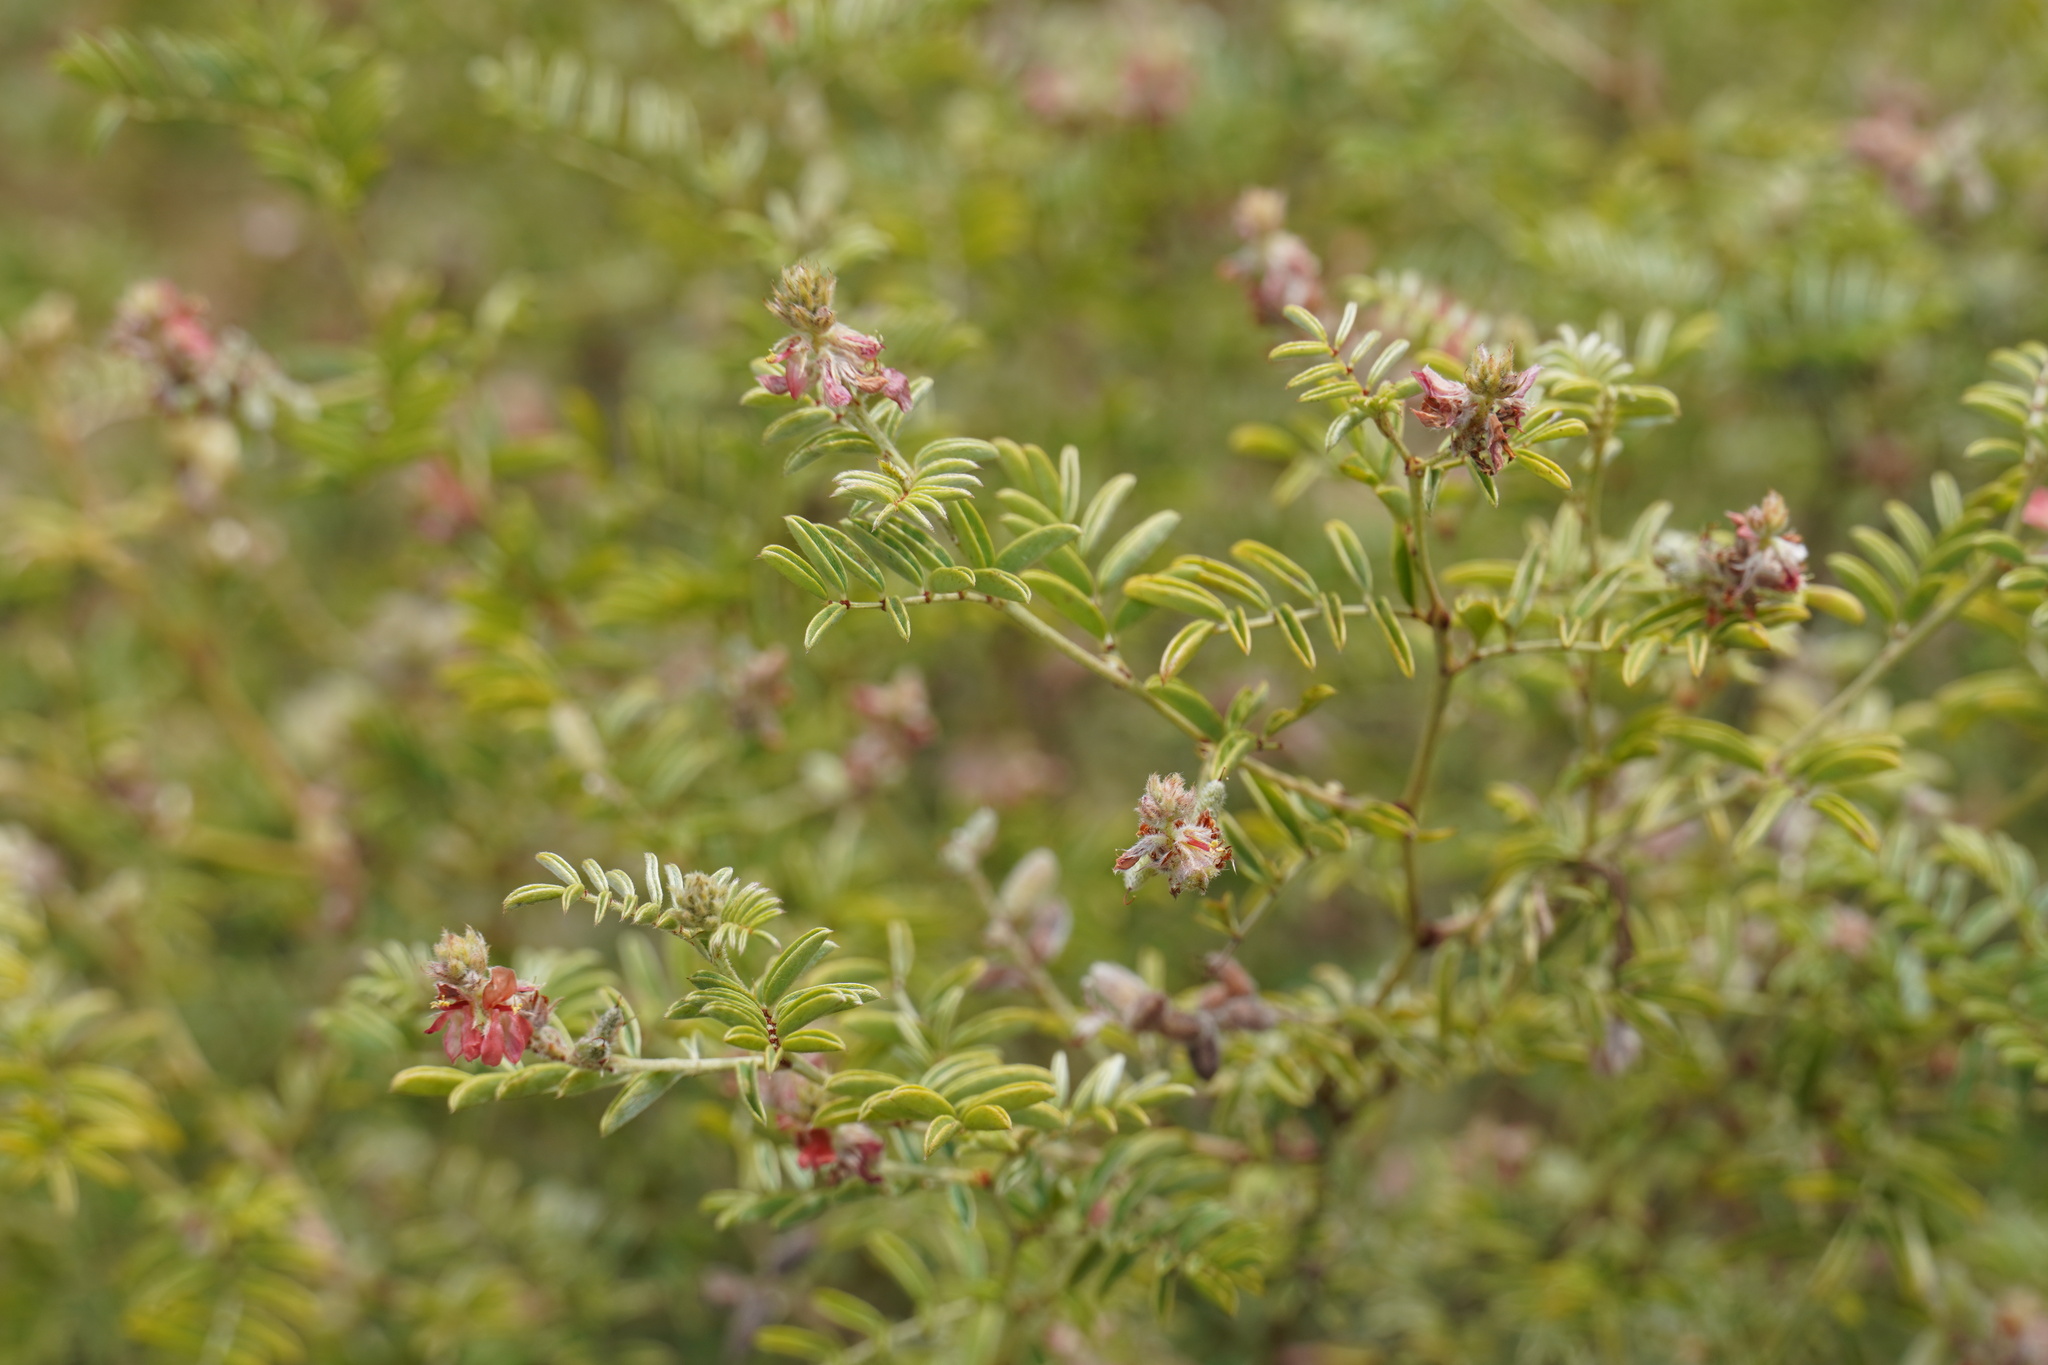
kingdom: Plantae
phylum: Tracheophyta
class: Magnoliopsida
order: Fabales
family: Fabaceae
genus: Indigofera
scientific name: Indigofera melanadenia
